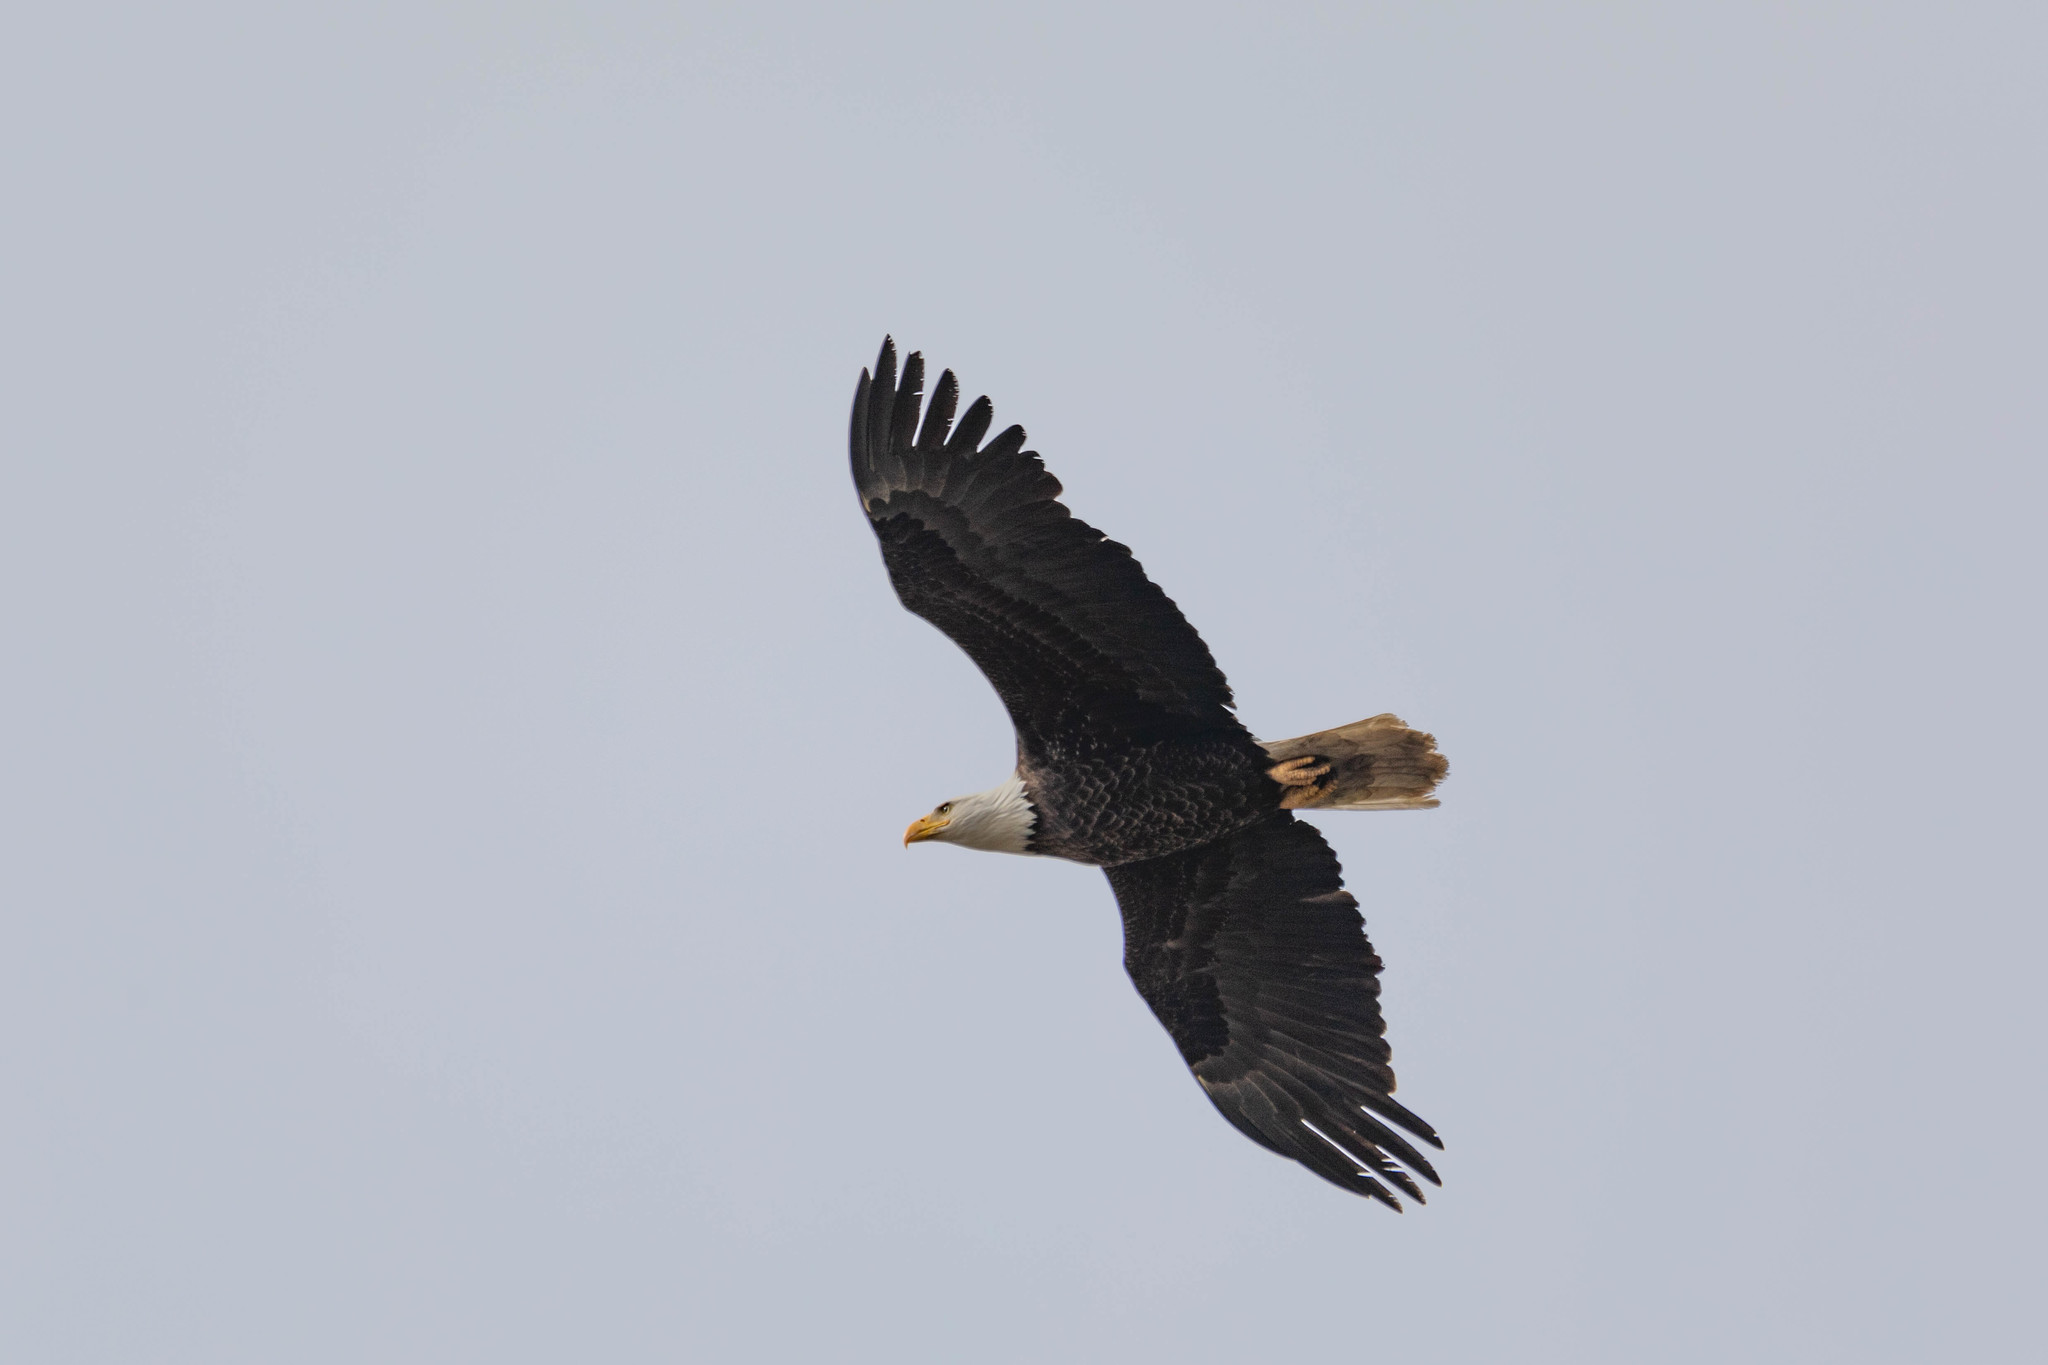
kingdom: Animalia
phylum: Chordata
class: Aves
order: Accipitriformes
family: Accipitridae
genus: Haliaeetus
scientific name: Haliaeetus leucocephalus
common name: Bald eagle
